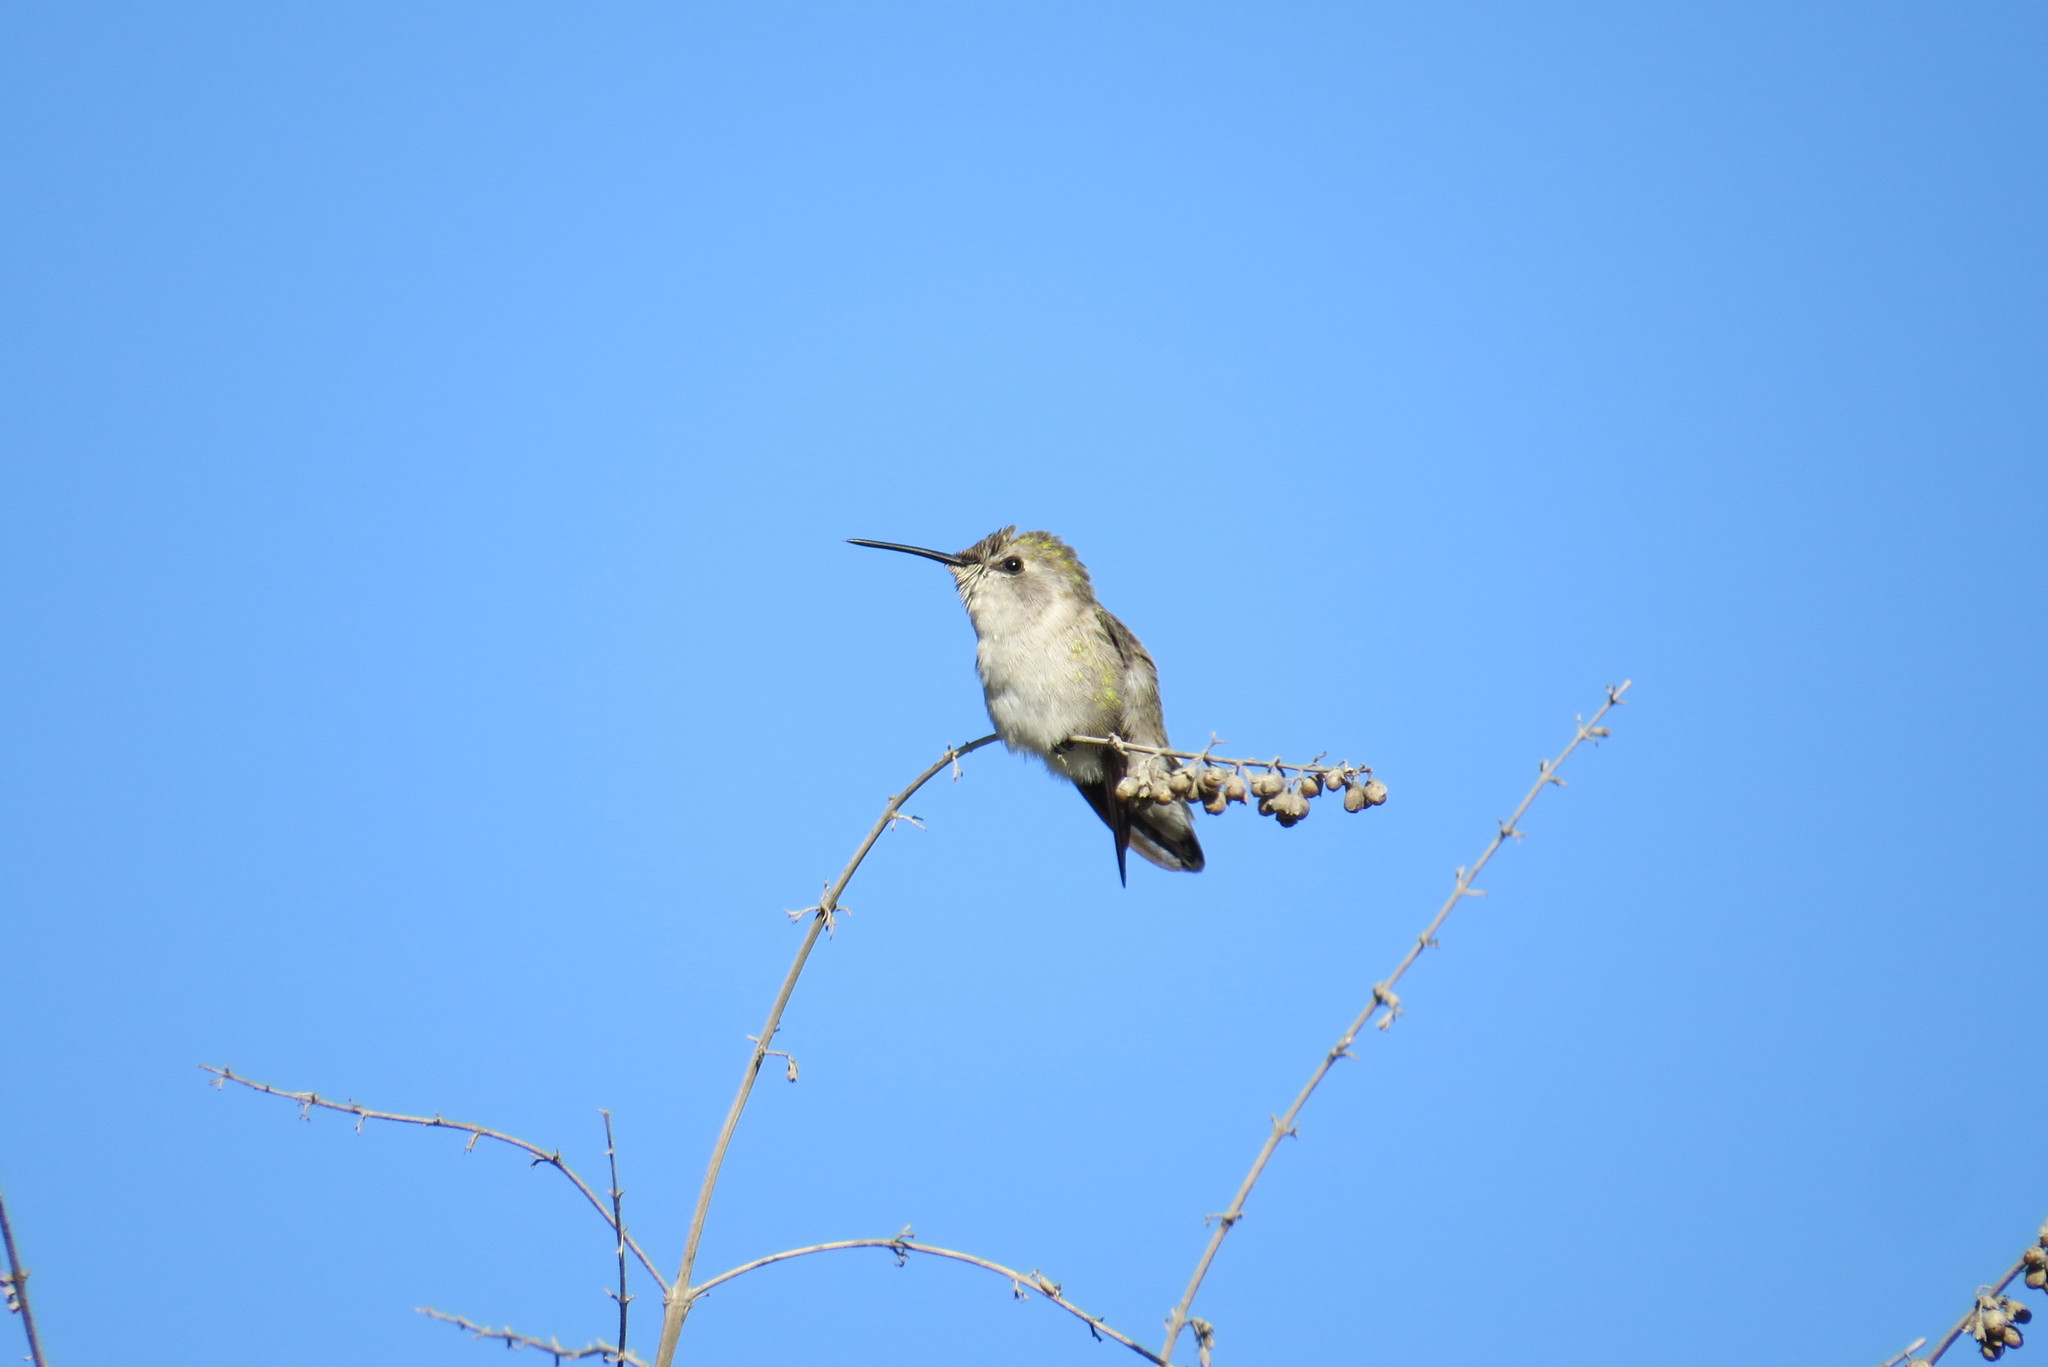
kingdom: Animalia
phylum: Chordata
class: Aves
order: Apodiformes
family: Trochilidae
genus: Calypte
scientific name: Calypte costae
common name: Costa's hummingbird
